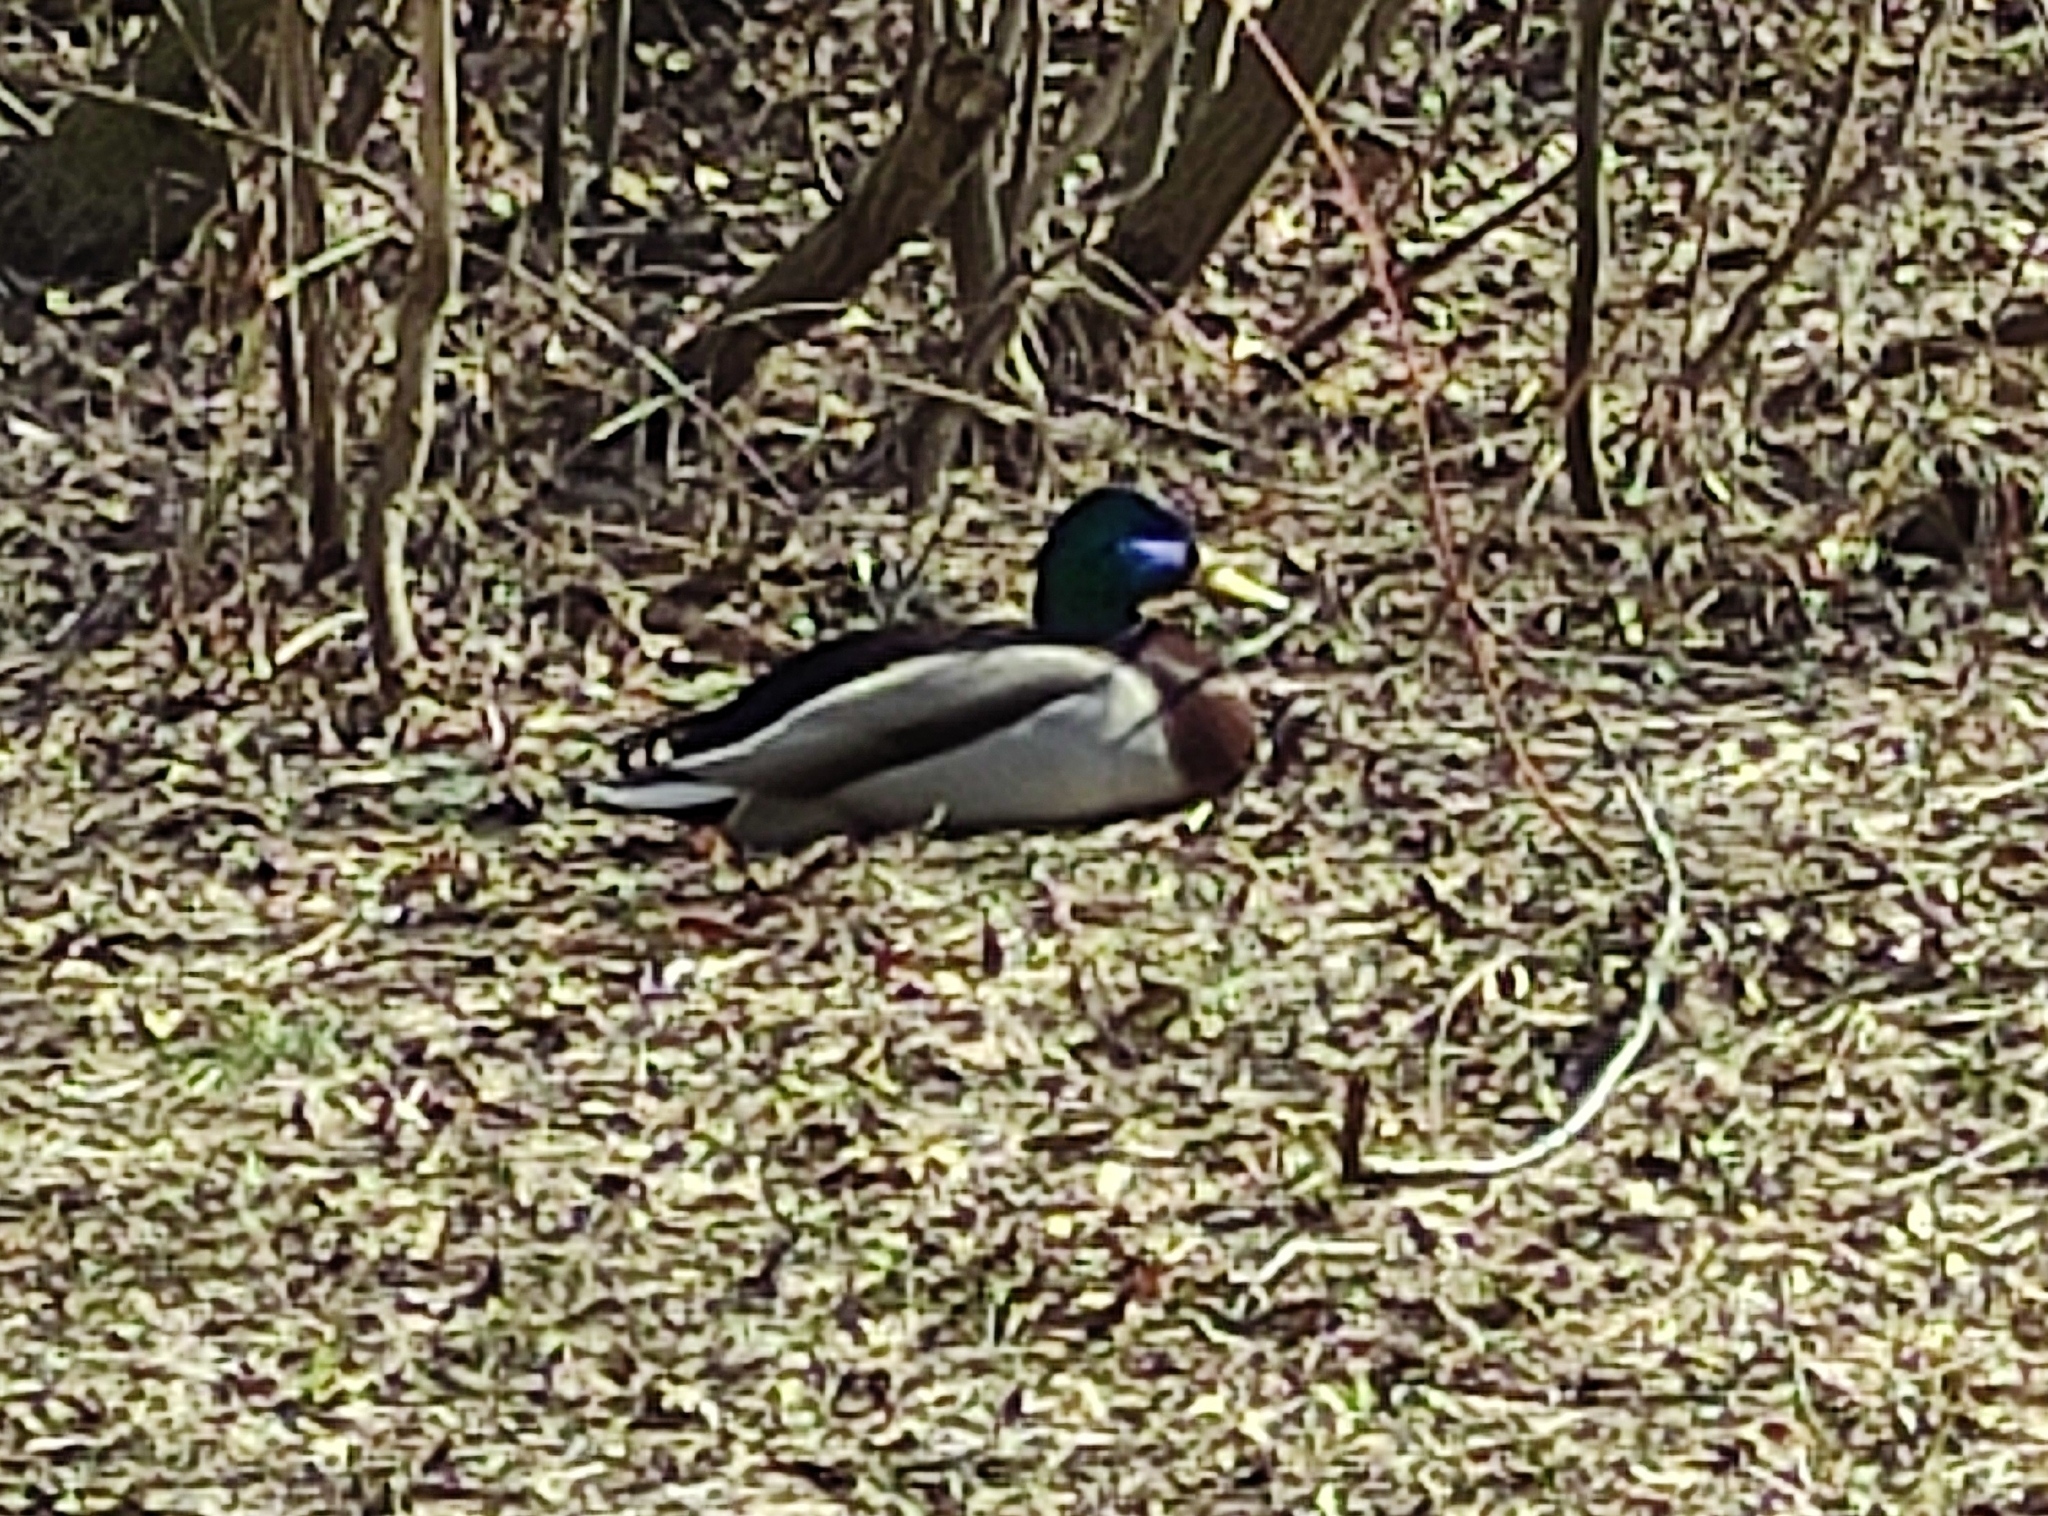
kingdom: Animalia
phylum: Chordata
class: Aves
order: Anseriformes
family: Anatidae
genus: Anas
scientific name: Anas platyrhynchos
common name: Mallard
